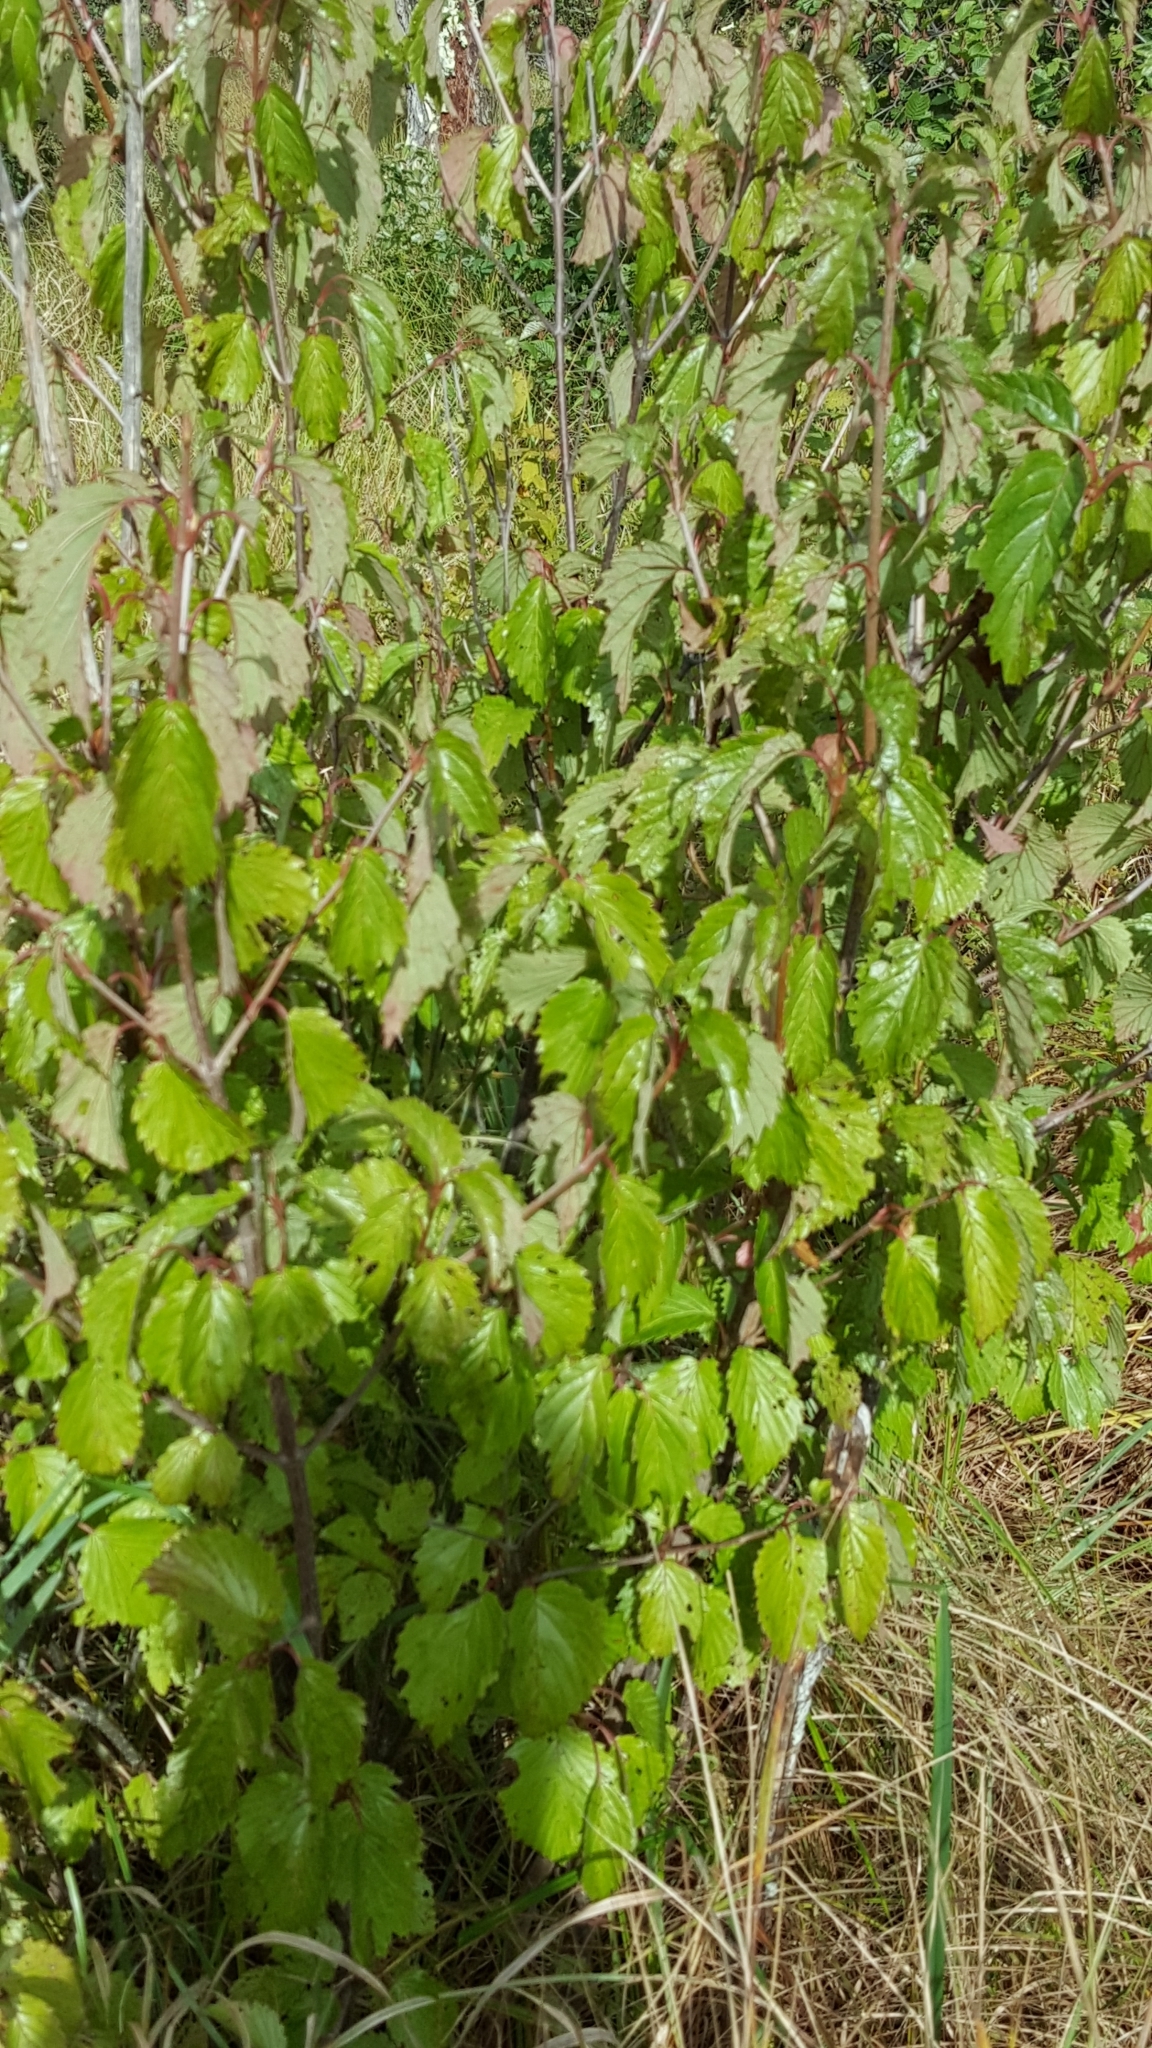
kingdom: Plantae
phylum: Tracheophyta
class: Magnoliopsida
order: Dipsacales
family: Viburnaceae
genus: Viburnum
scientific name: Viburnum dentatum
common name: Arrow-wood
